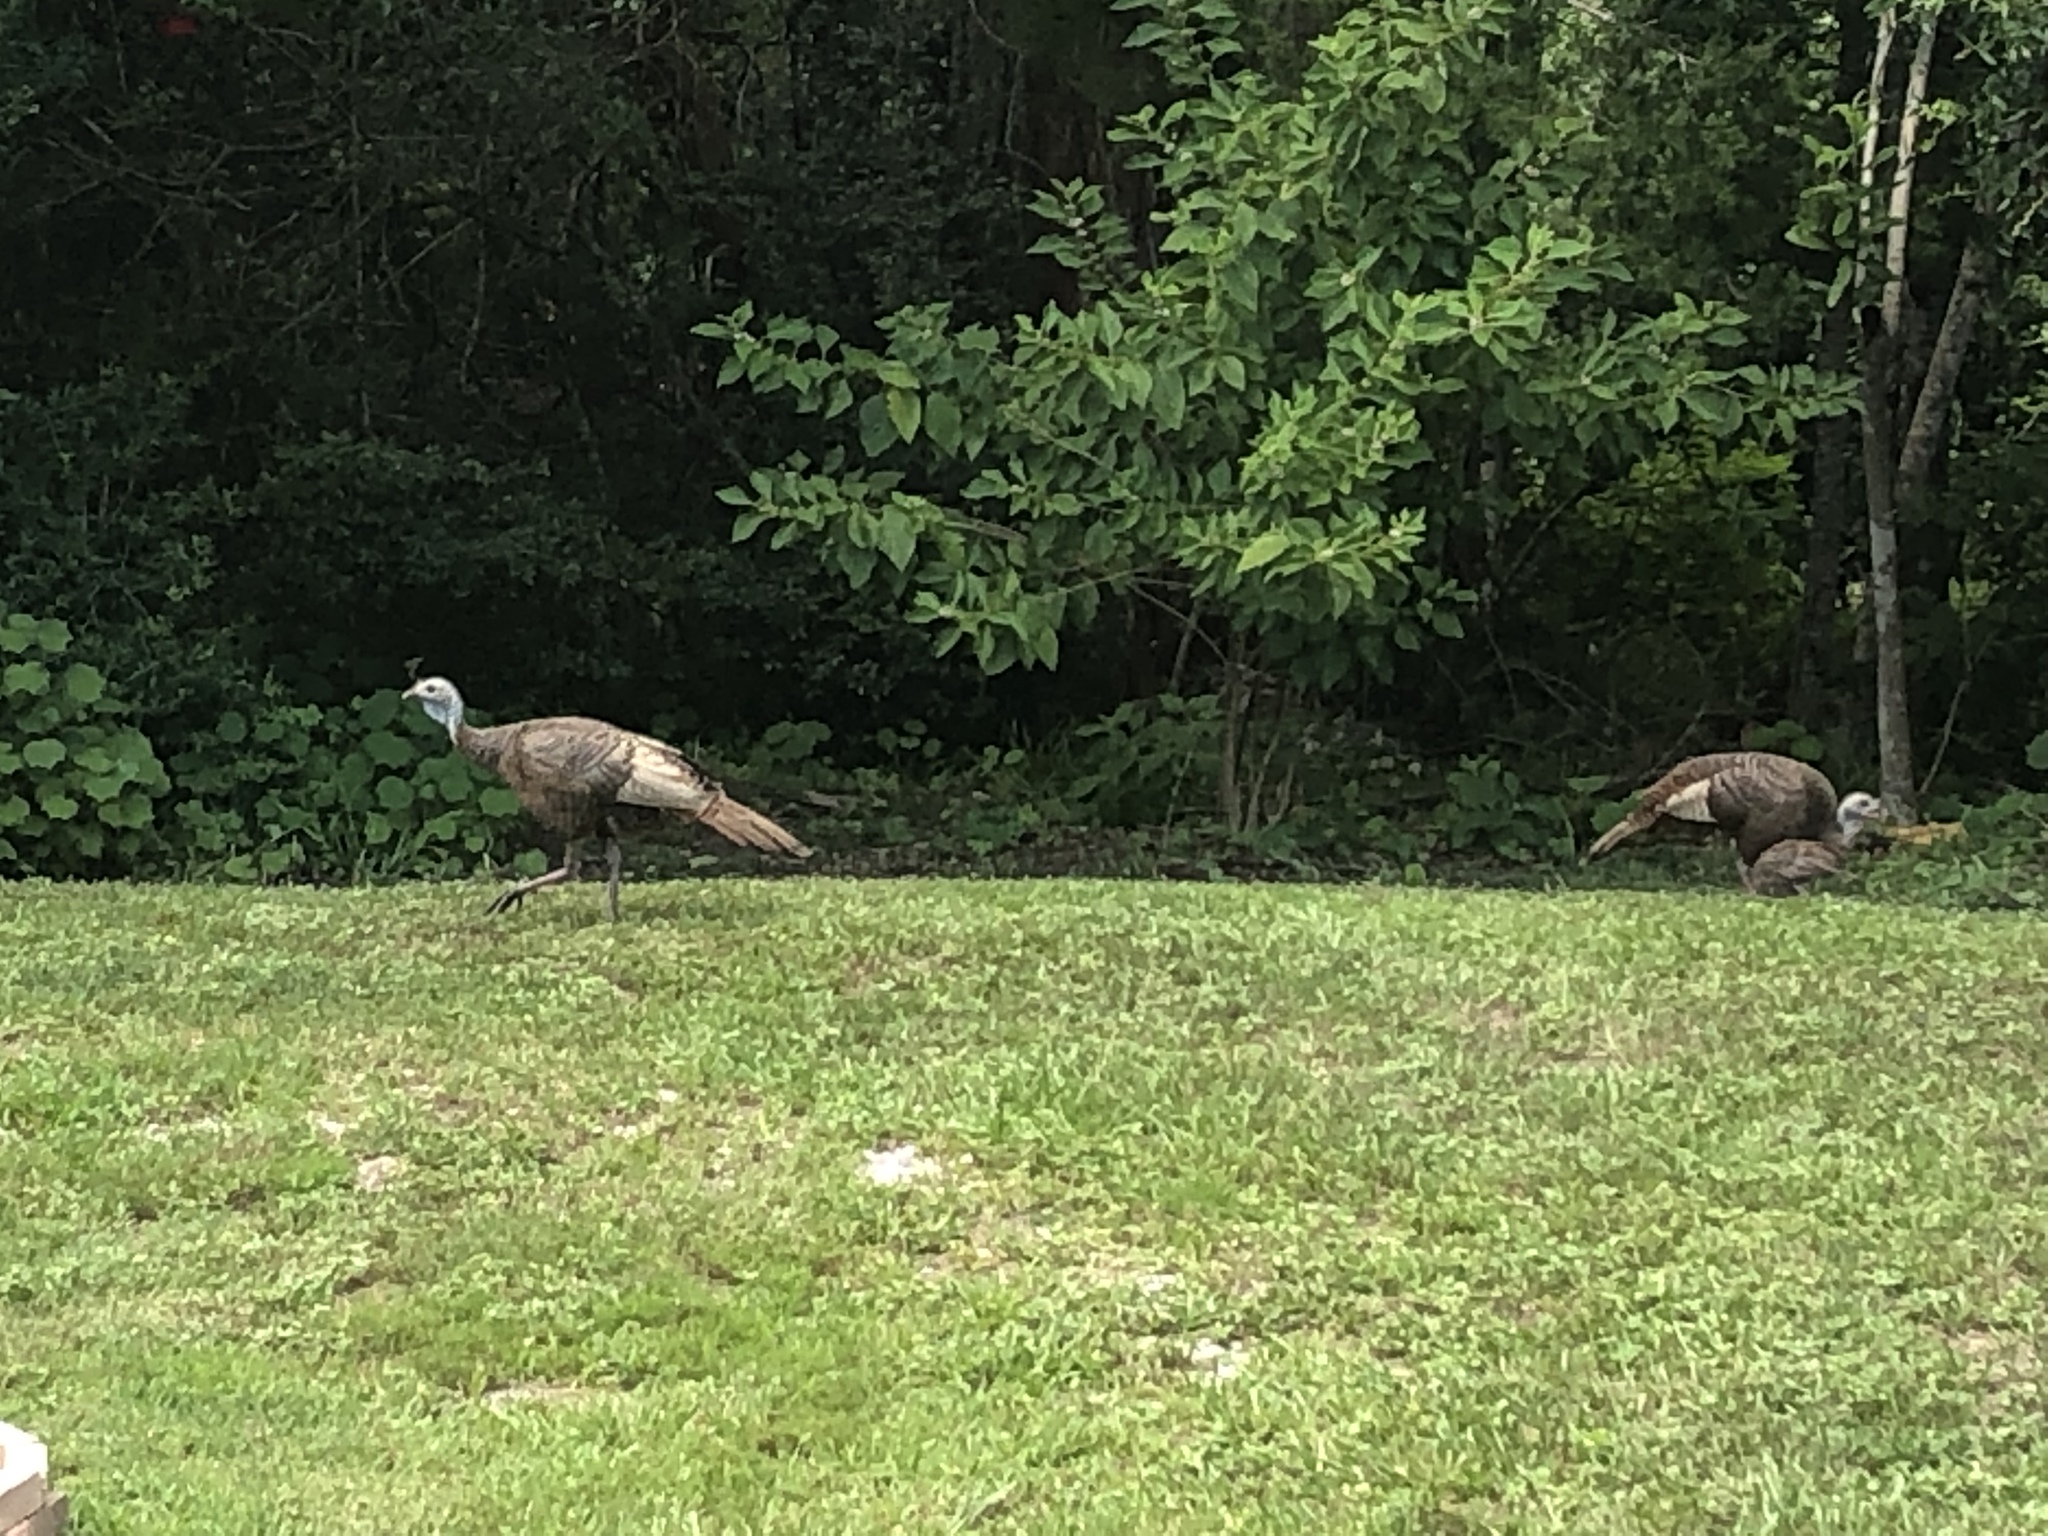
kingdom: Animalia
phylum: Chordata
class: Aves
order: Galliformes
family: Phasianidae
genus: Meleagris
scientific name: Meleagris gallopavo
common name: Wild turkey
